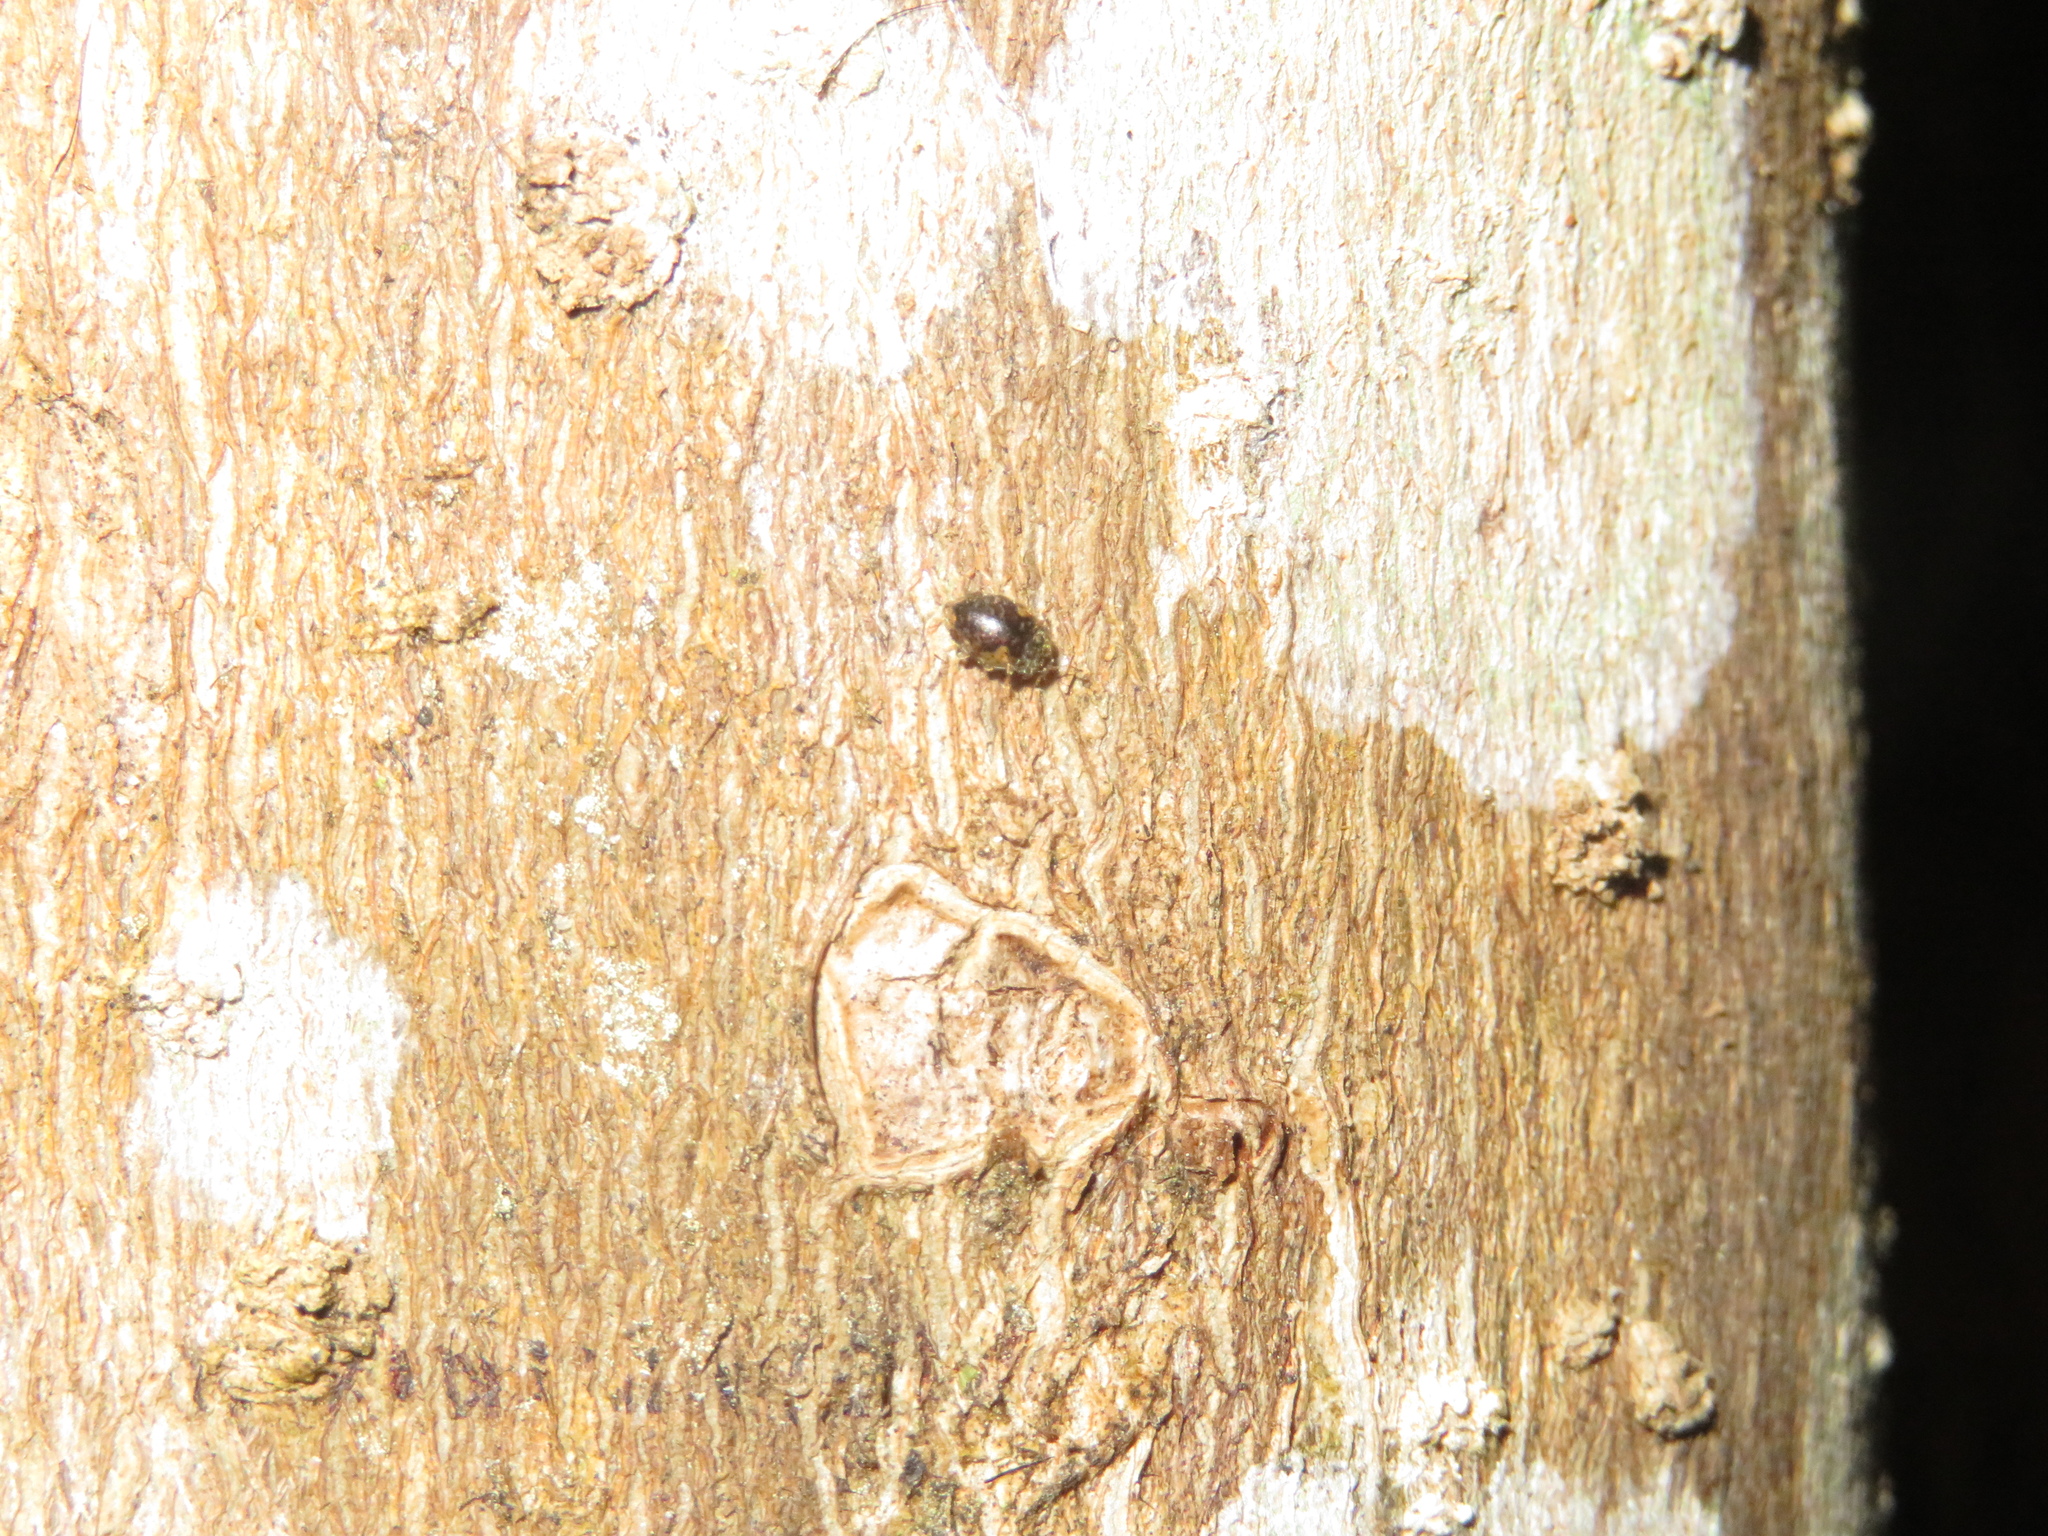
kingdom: Animalia
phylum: Arthropoda
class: Insecta
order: Coleoptera
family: Coccinellidae
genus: Rhyzobius
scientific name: Rhyzobius
